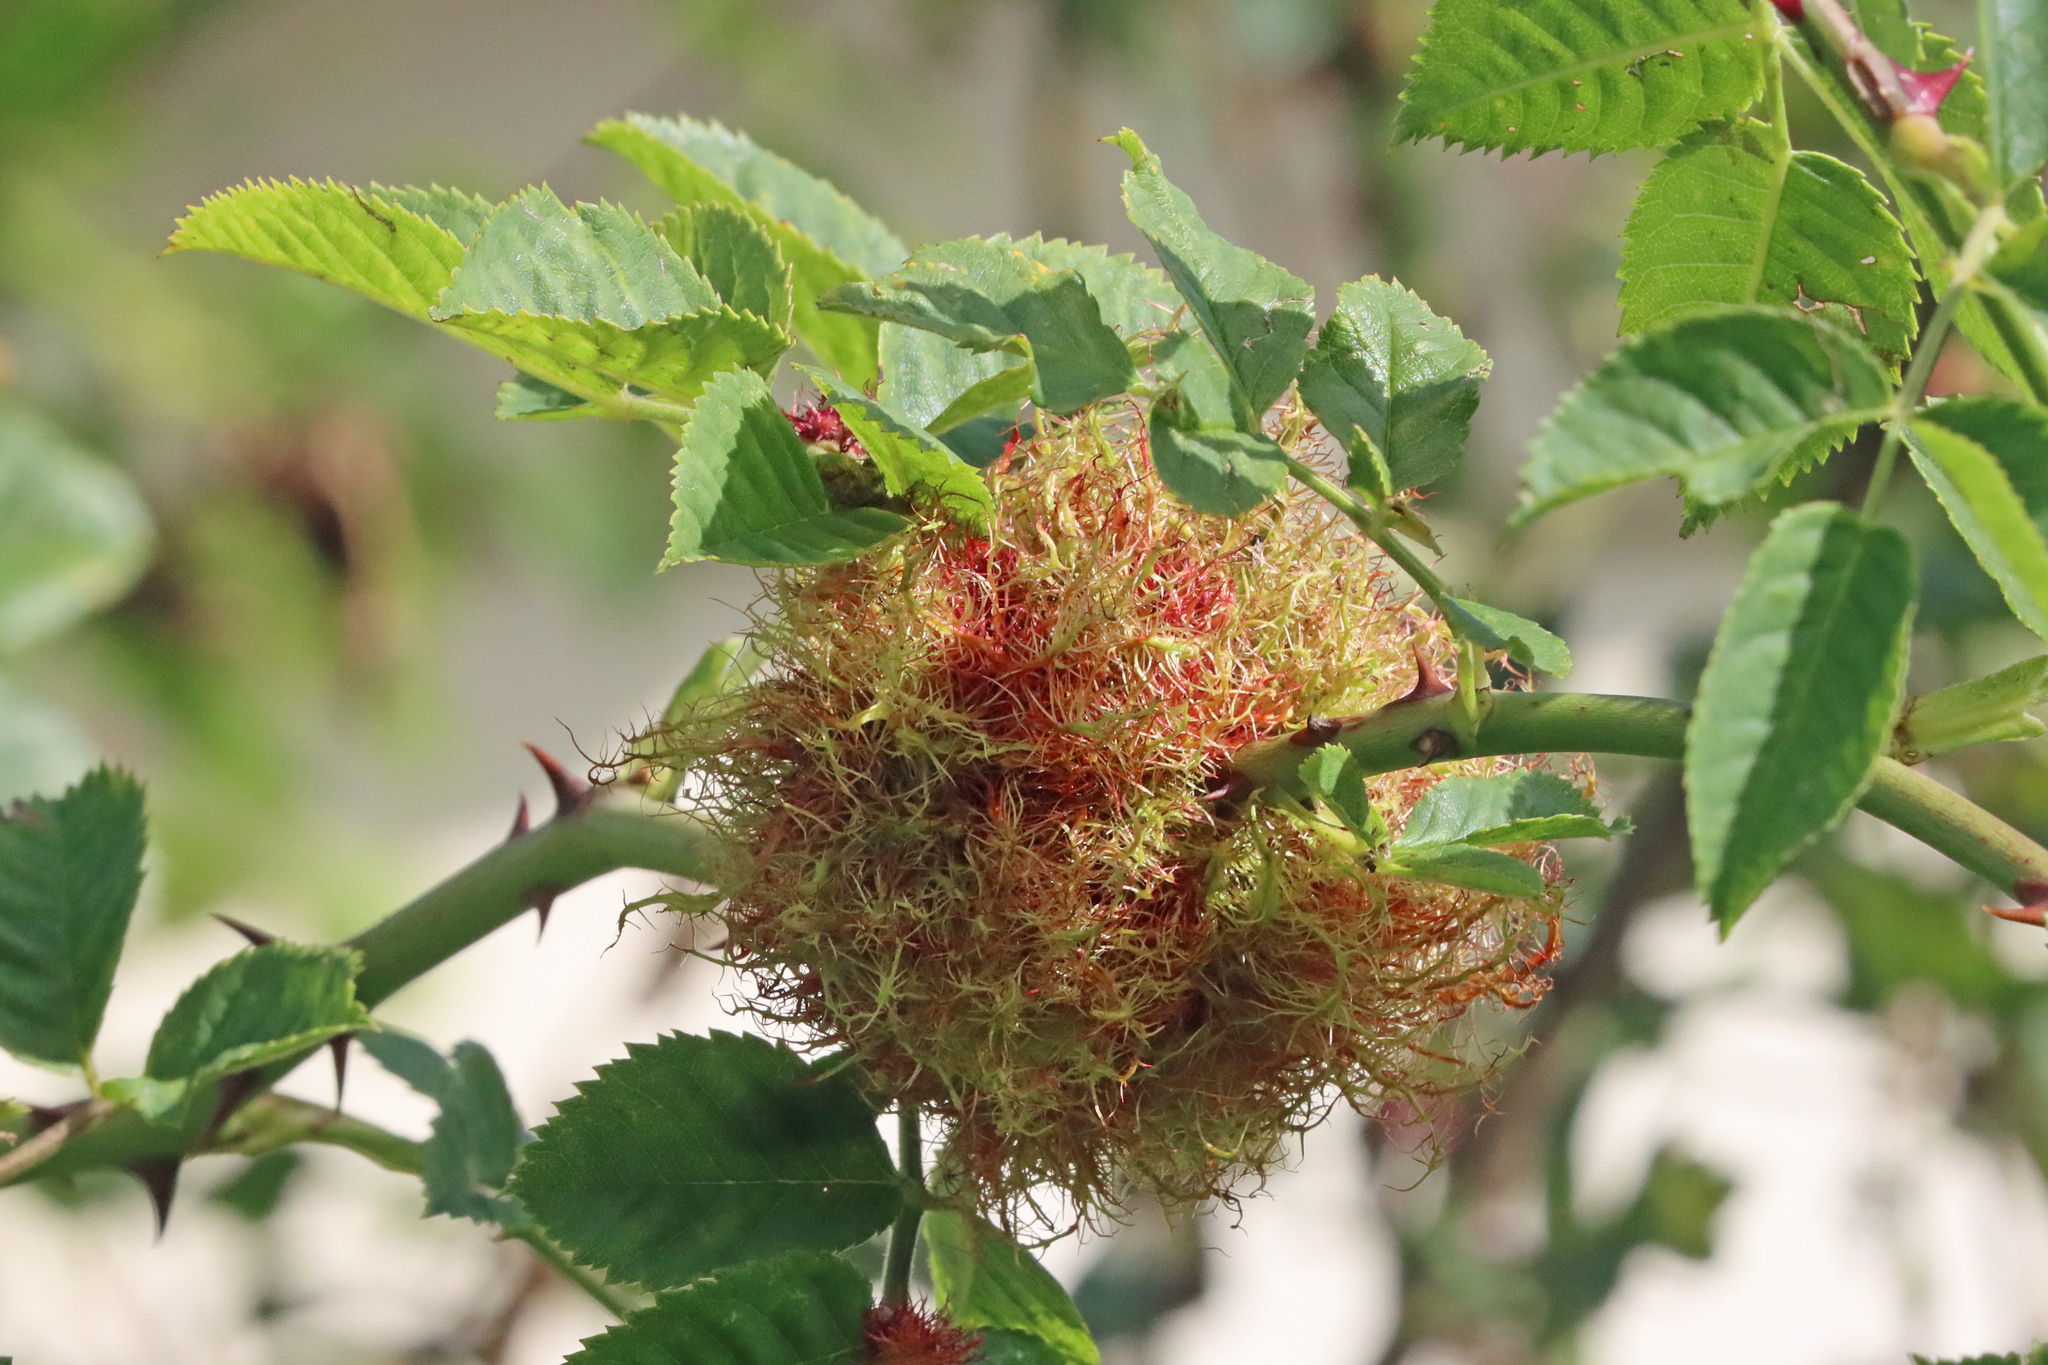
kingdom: Animalia
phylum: Arthropoda
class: Insecta
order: Hymenoptera
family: Cynipidae
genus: Diplolepis
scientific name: Diplolepis rosae
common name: Bedeguar gall
